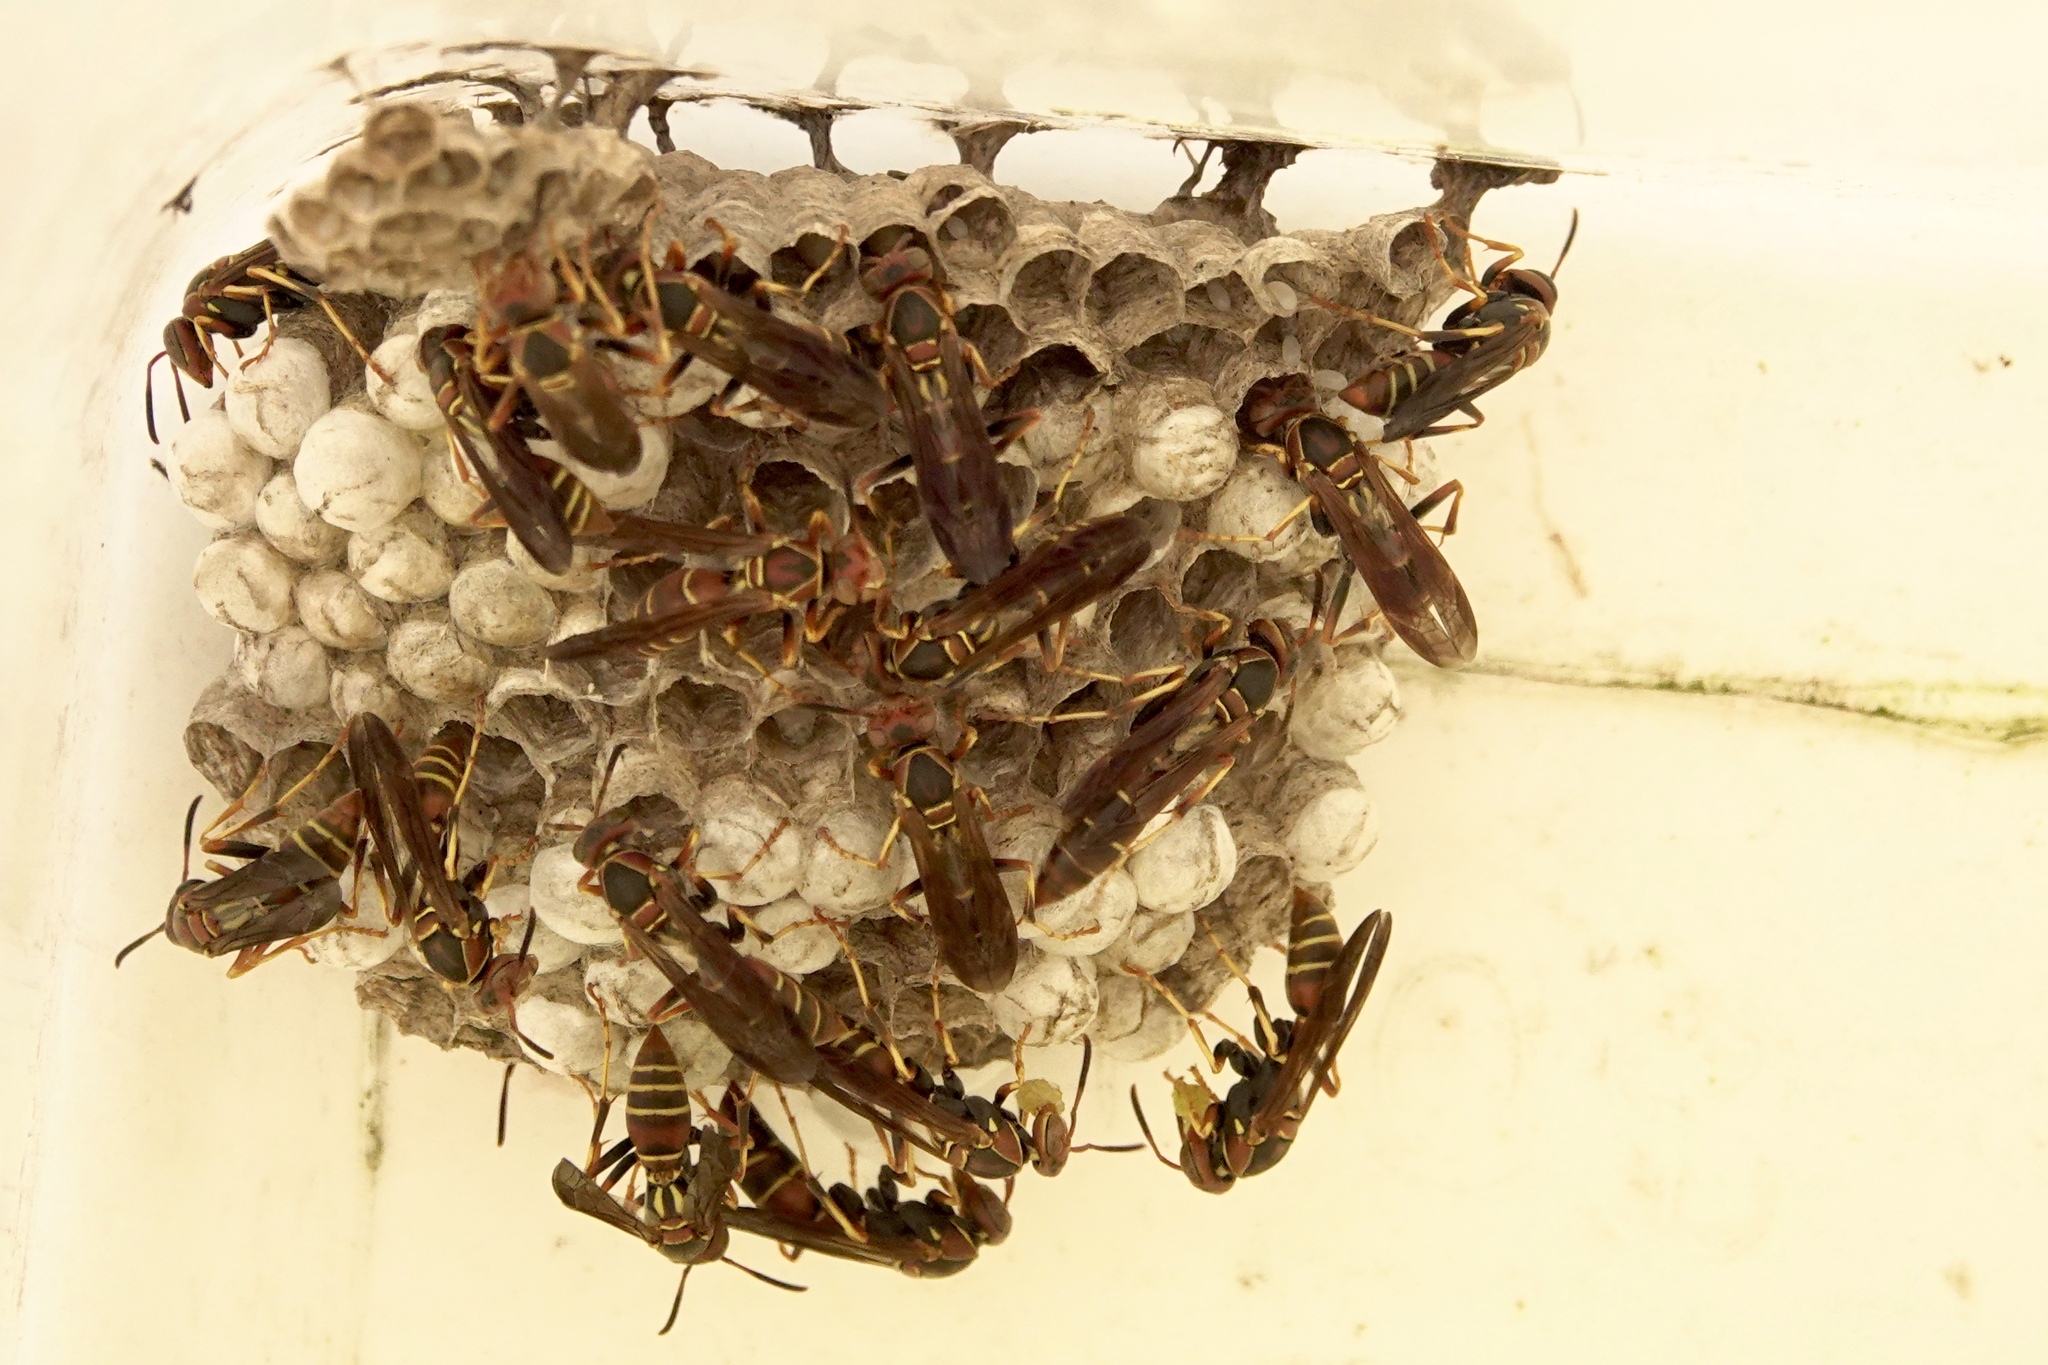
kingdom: Animalia
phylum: Arthropoda
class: Insecta
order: Hymenoptera
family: Eumenidae
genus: Polistes
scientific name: Polistes dorsalis
